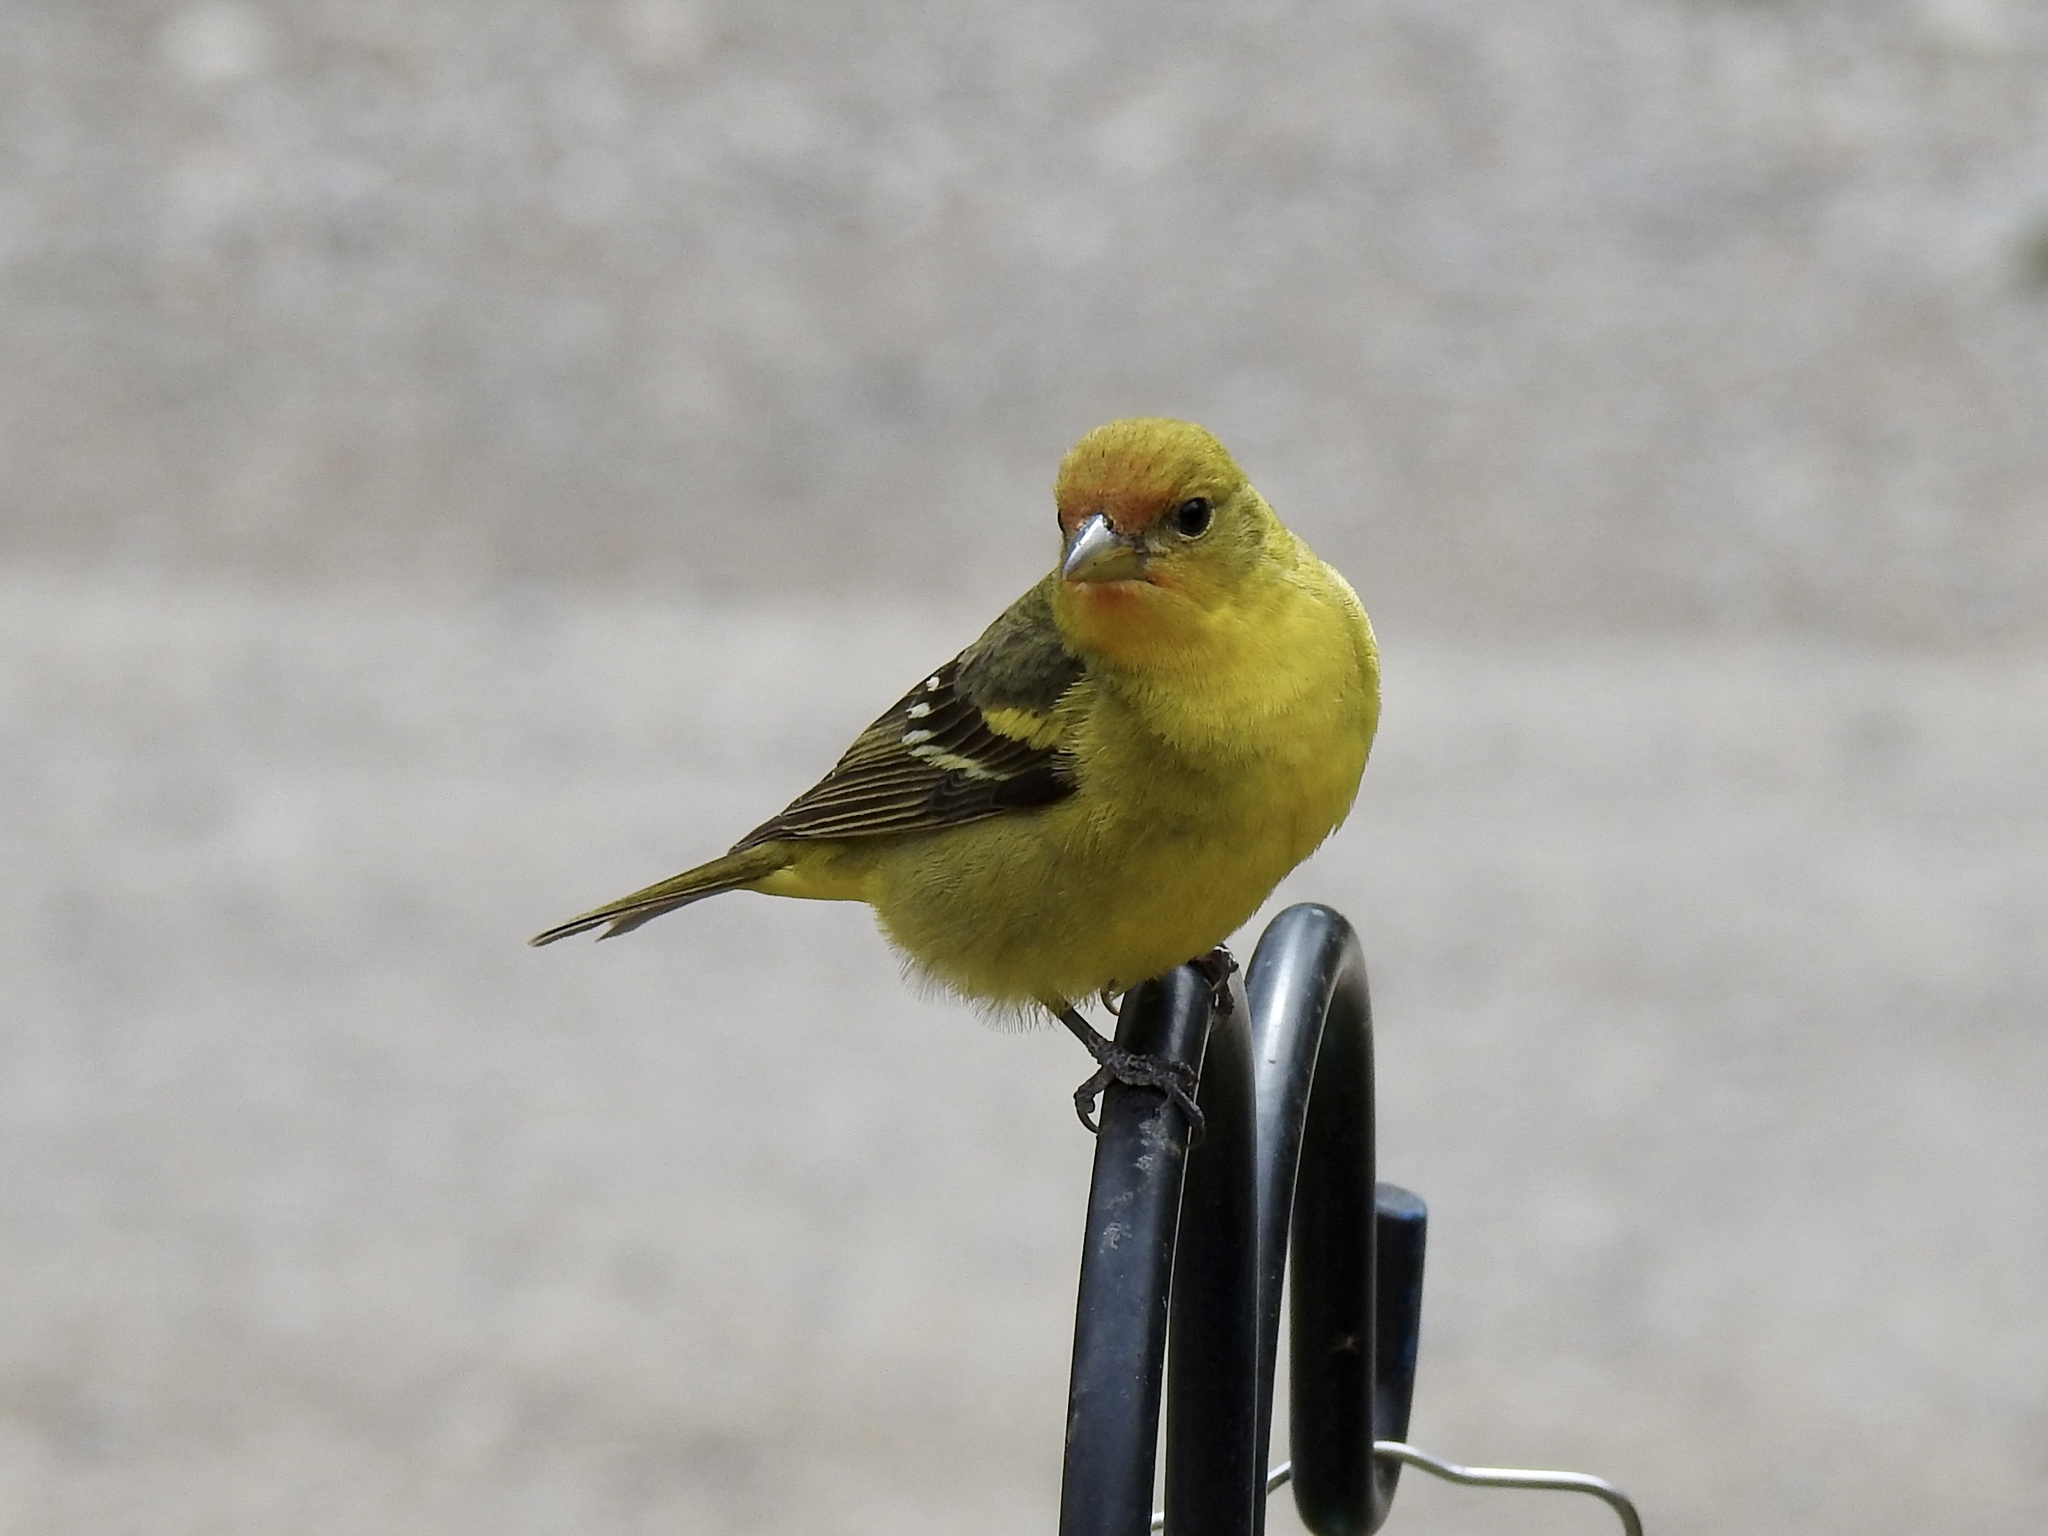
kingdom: Animalia
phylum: Chordata
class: Aves
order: Passeriformes
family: Cardinalidae
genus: Piranga
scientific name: Piranga ludoviciana
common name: Western tanager
